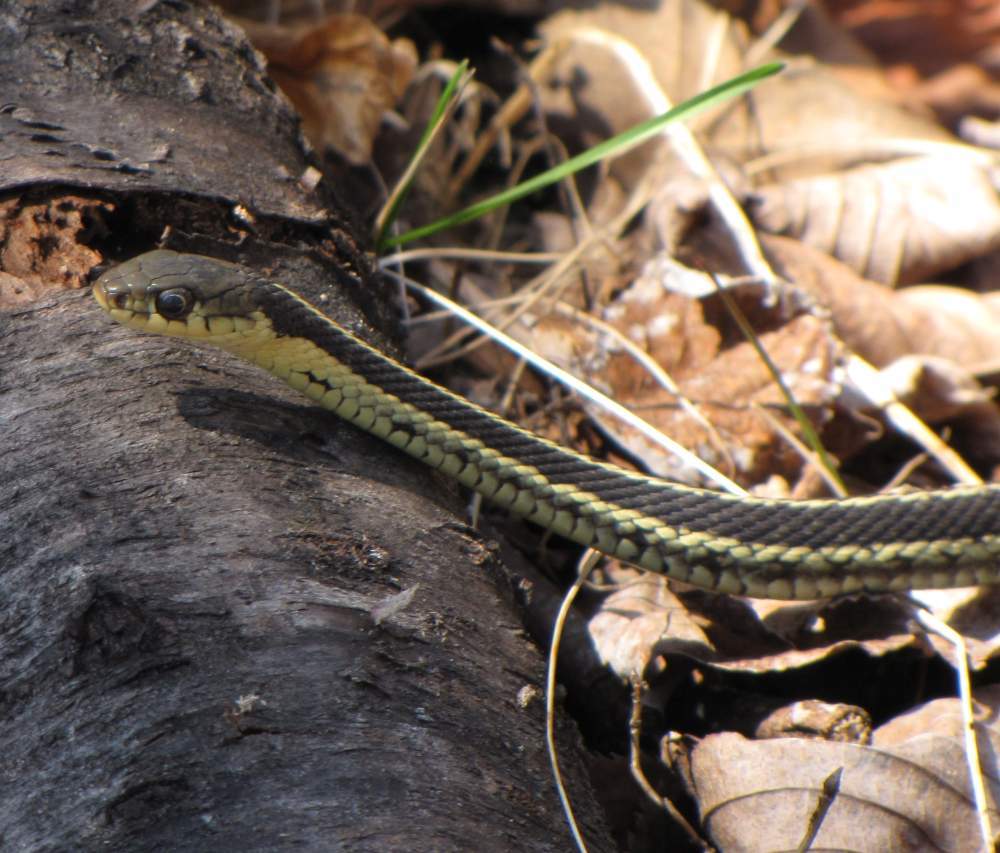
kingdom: Animalia
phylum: Chordata
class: Squamata
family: Colubridae
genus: Thamnophis
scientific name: Thamnophis sirtalis
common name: Common garter snake
